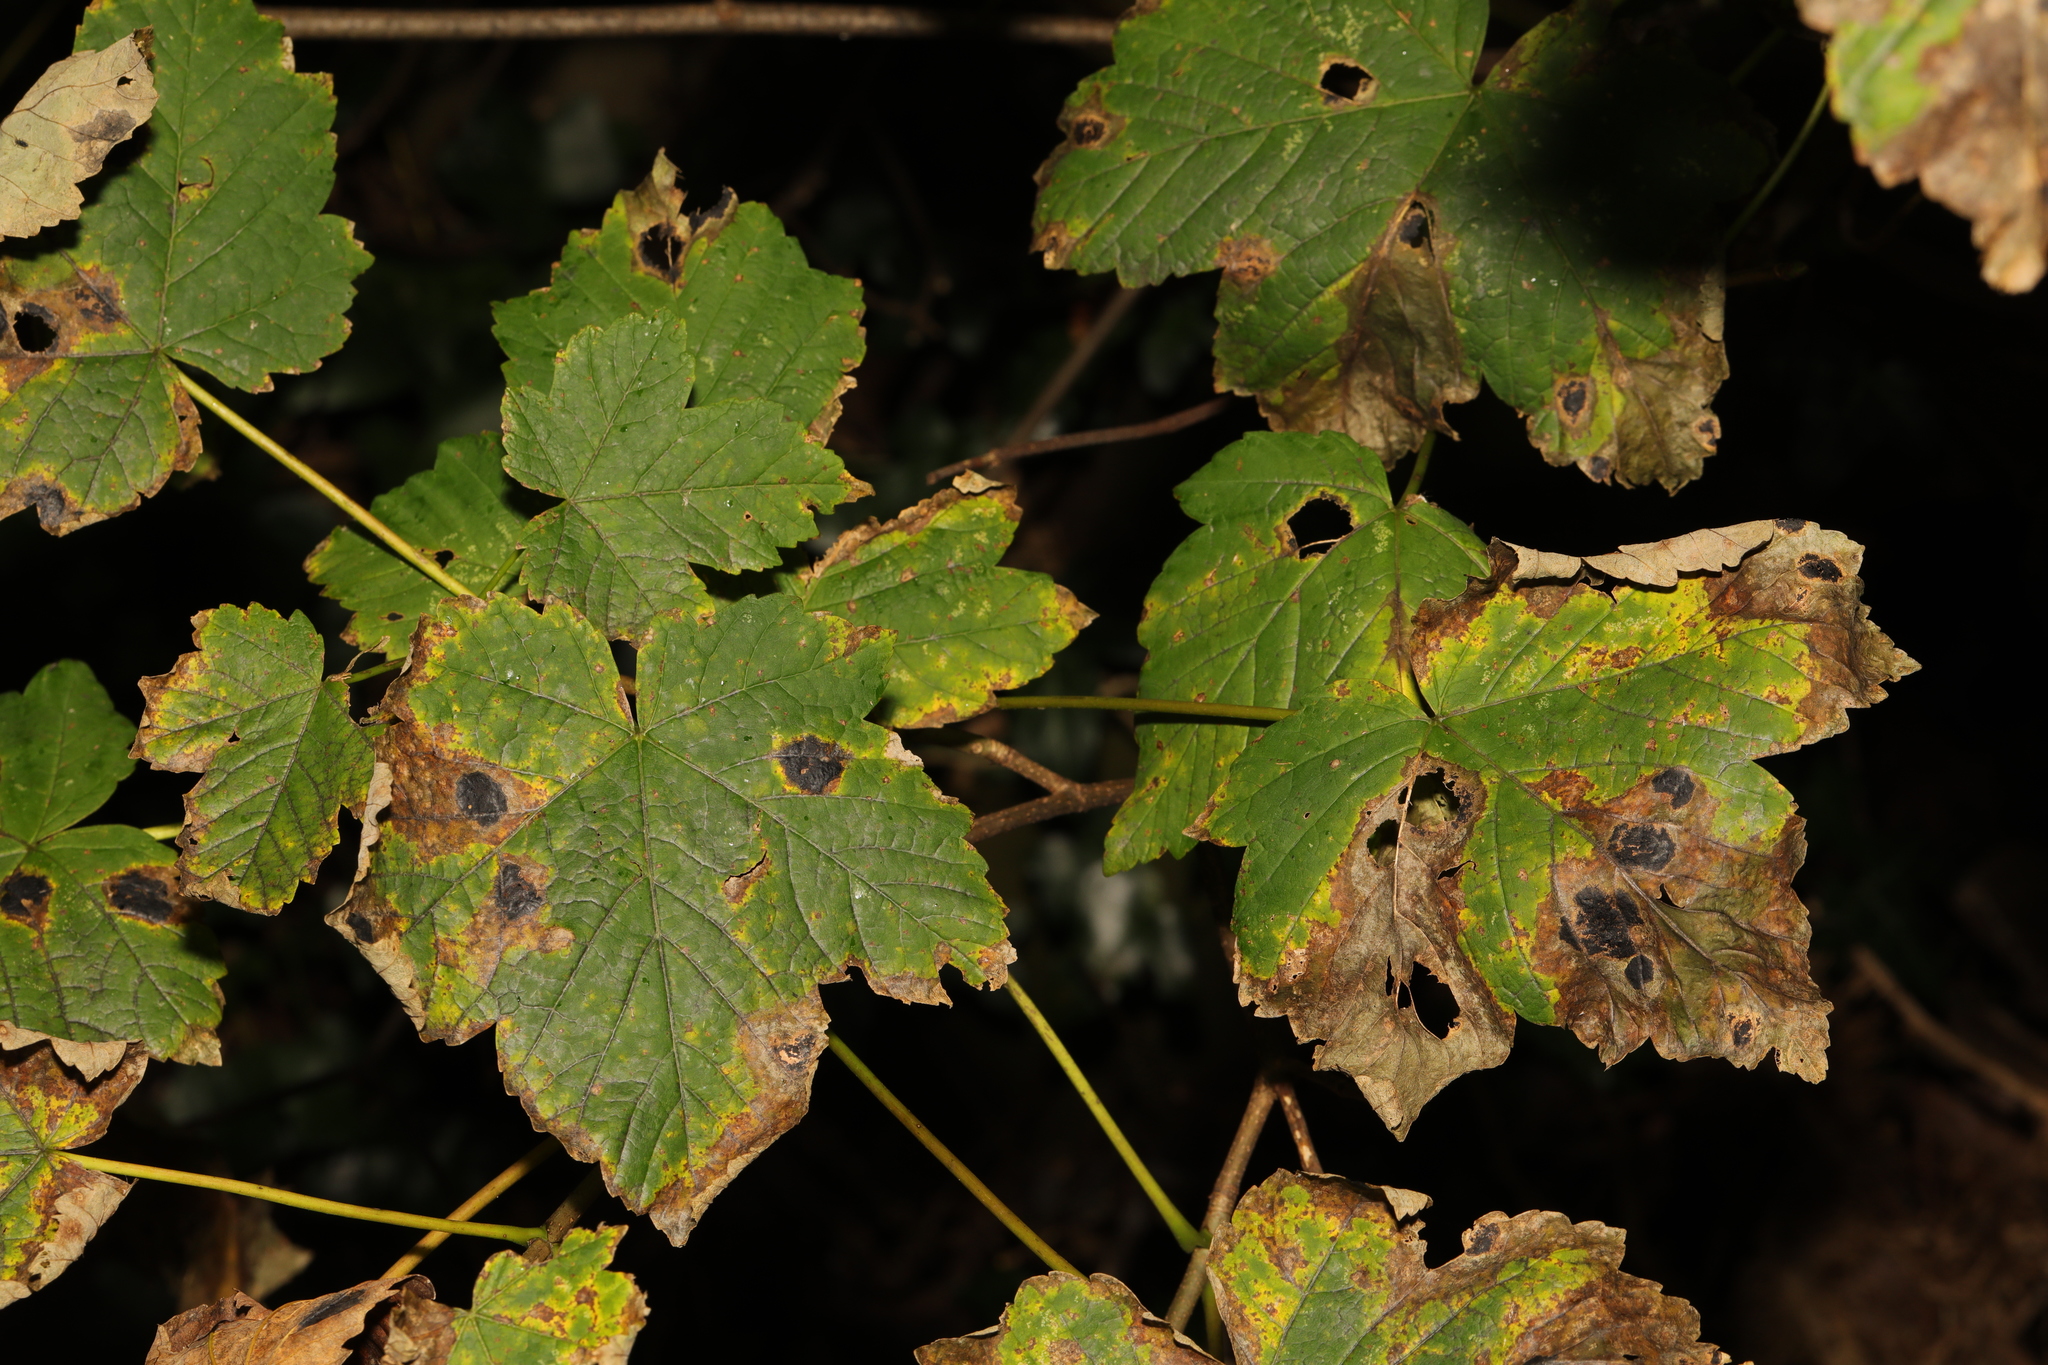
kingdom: Fungi
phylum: Ascomycota
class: Leotiomycetes
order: Rhytismatales
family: Rhytismataceae
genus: Rhytisma
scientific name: Rhytisma acerinum
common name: European tar spot
